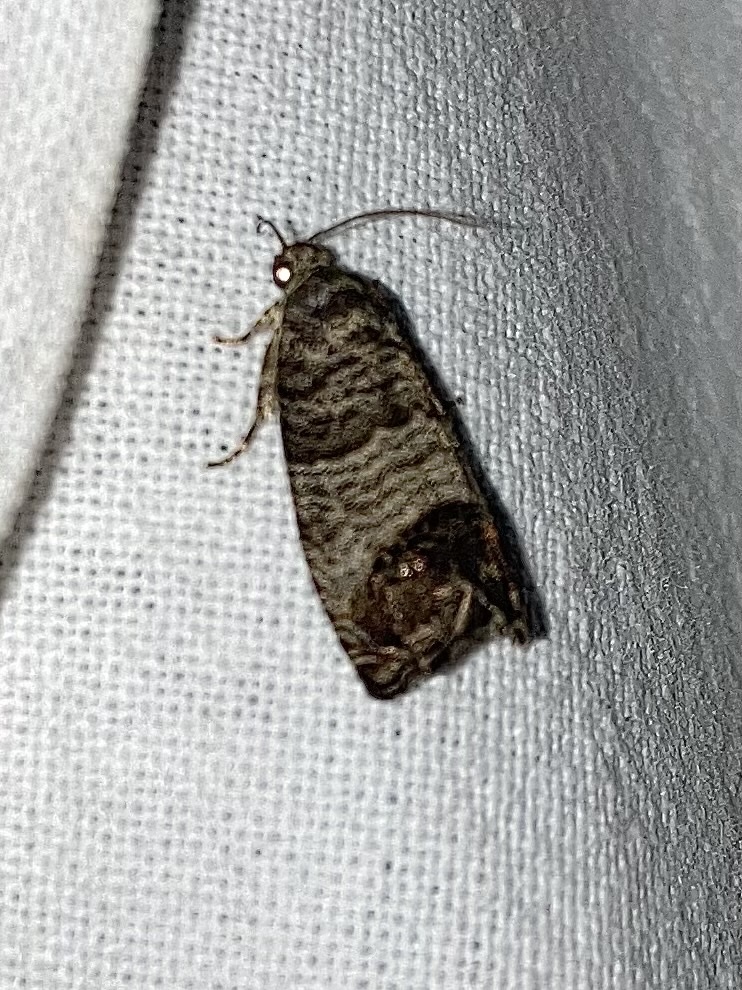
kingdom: Animalia
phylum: Arthropoda
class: Insecta
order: Lepidoptera
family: Tortricidae
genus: Cydia
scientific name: Cydia pomonella
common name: Codling moth
